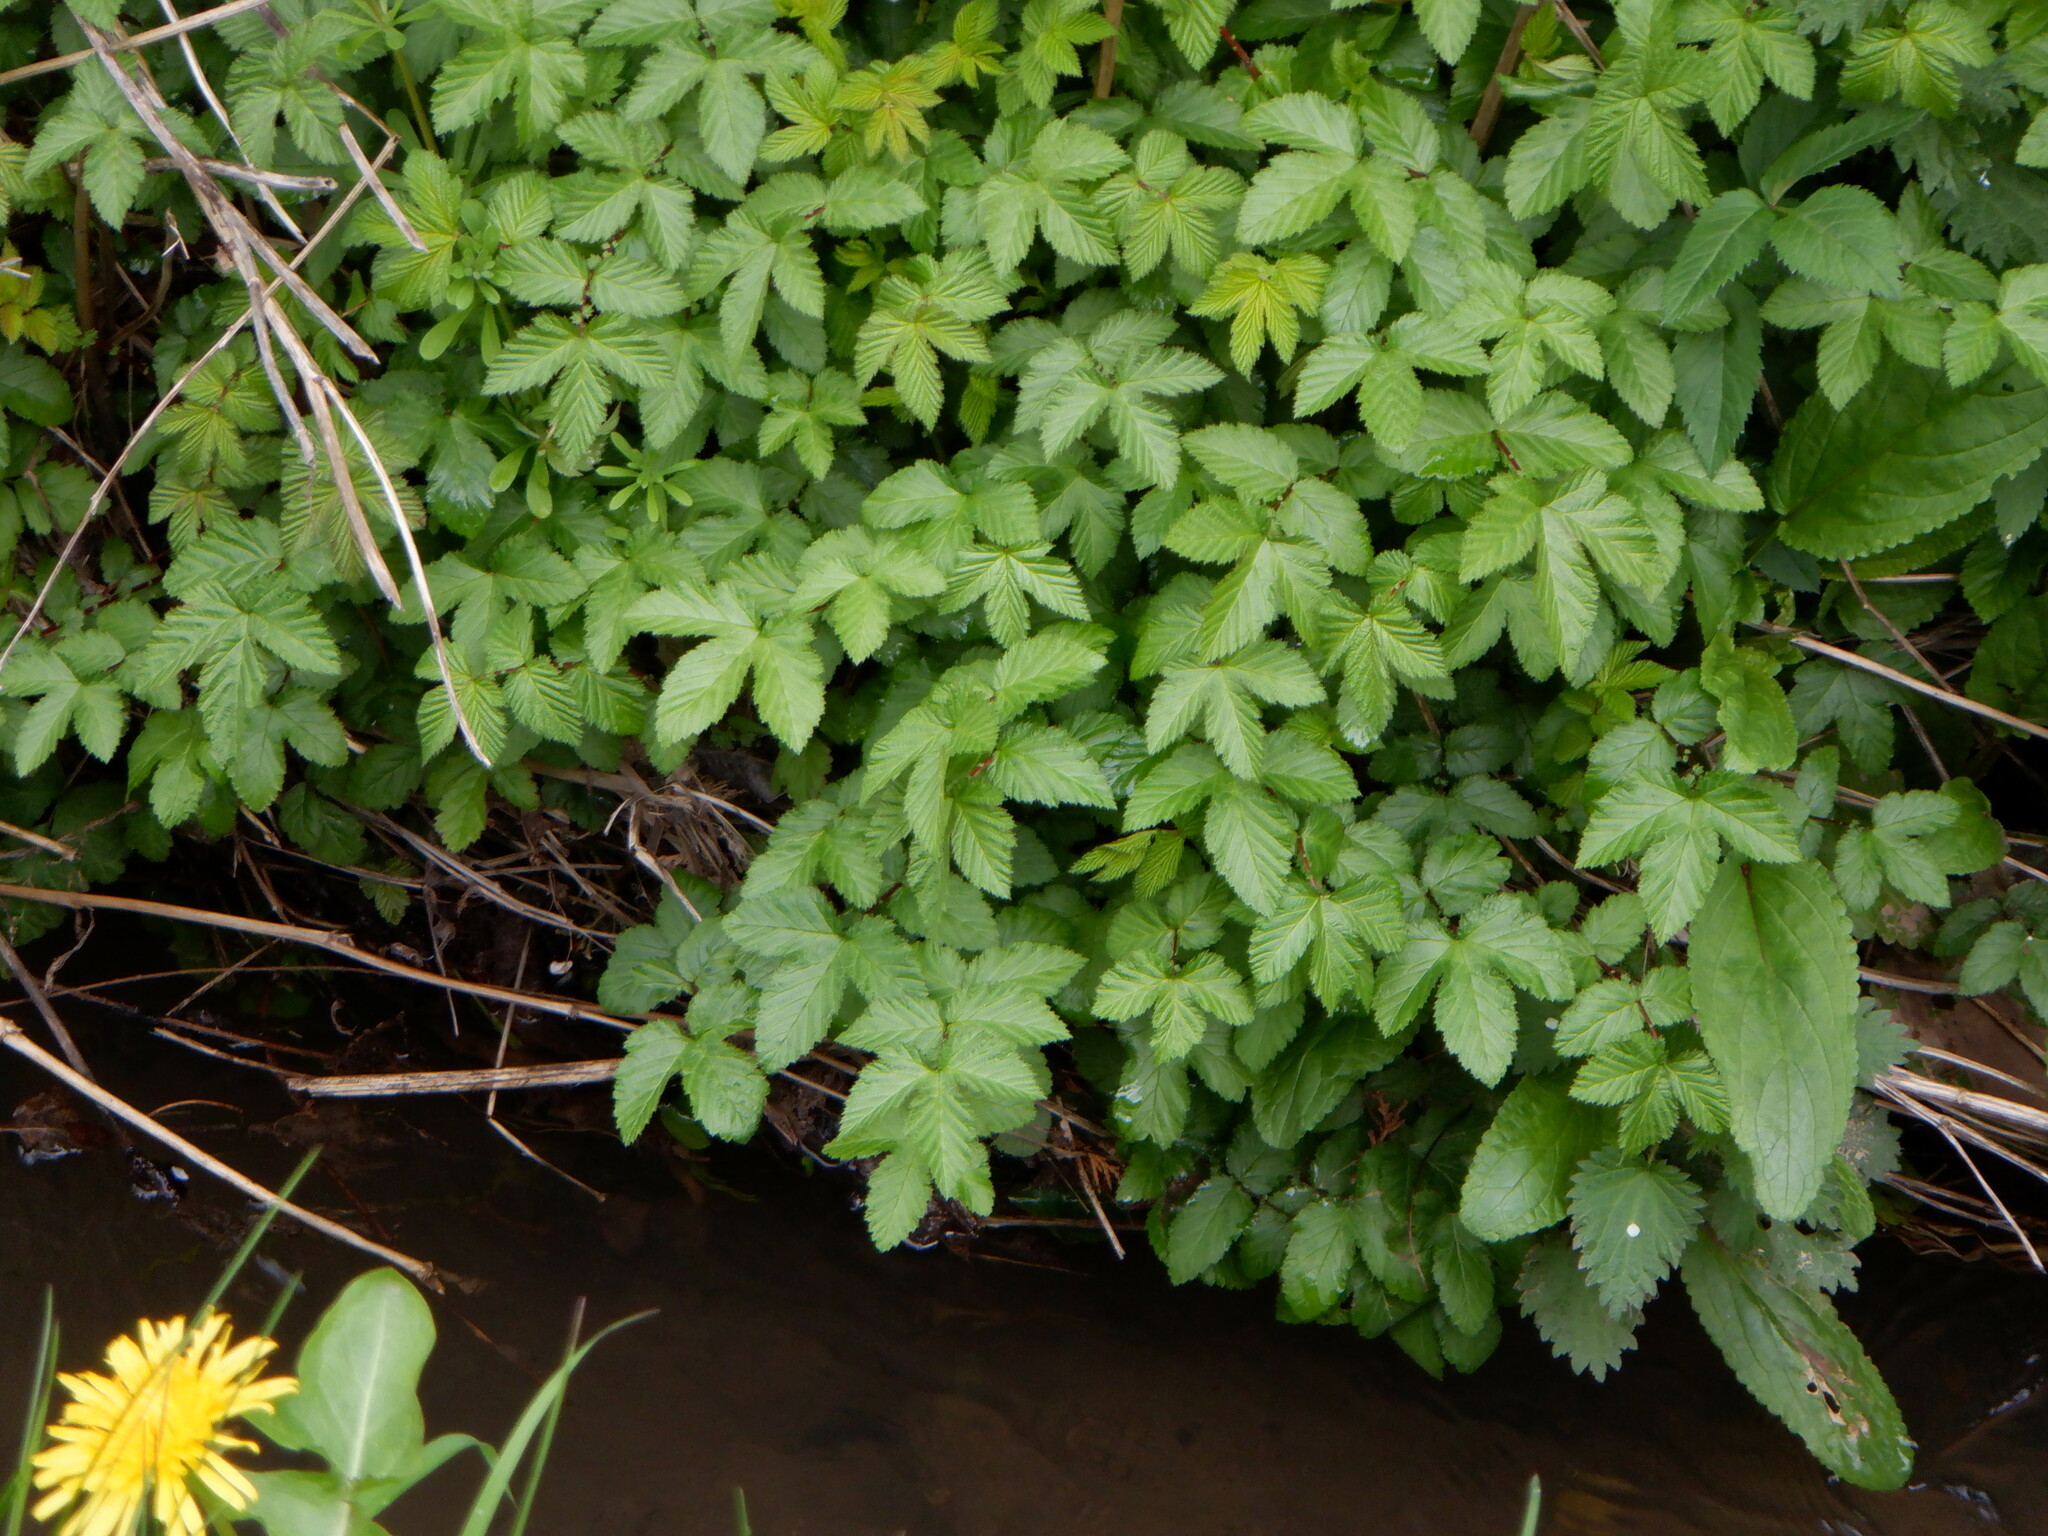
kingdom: Plantae
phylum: Tracheophyta
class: Magnoliopsida
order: Rosales
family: Rosaceae
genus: Filipendula
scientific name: Filipendula ulmaria
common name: Meadowsweet
